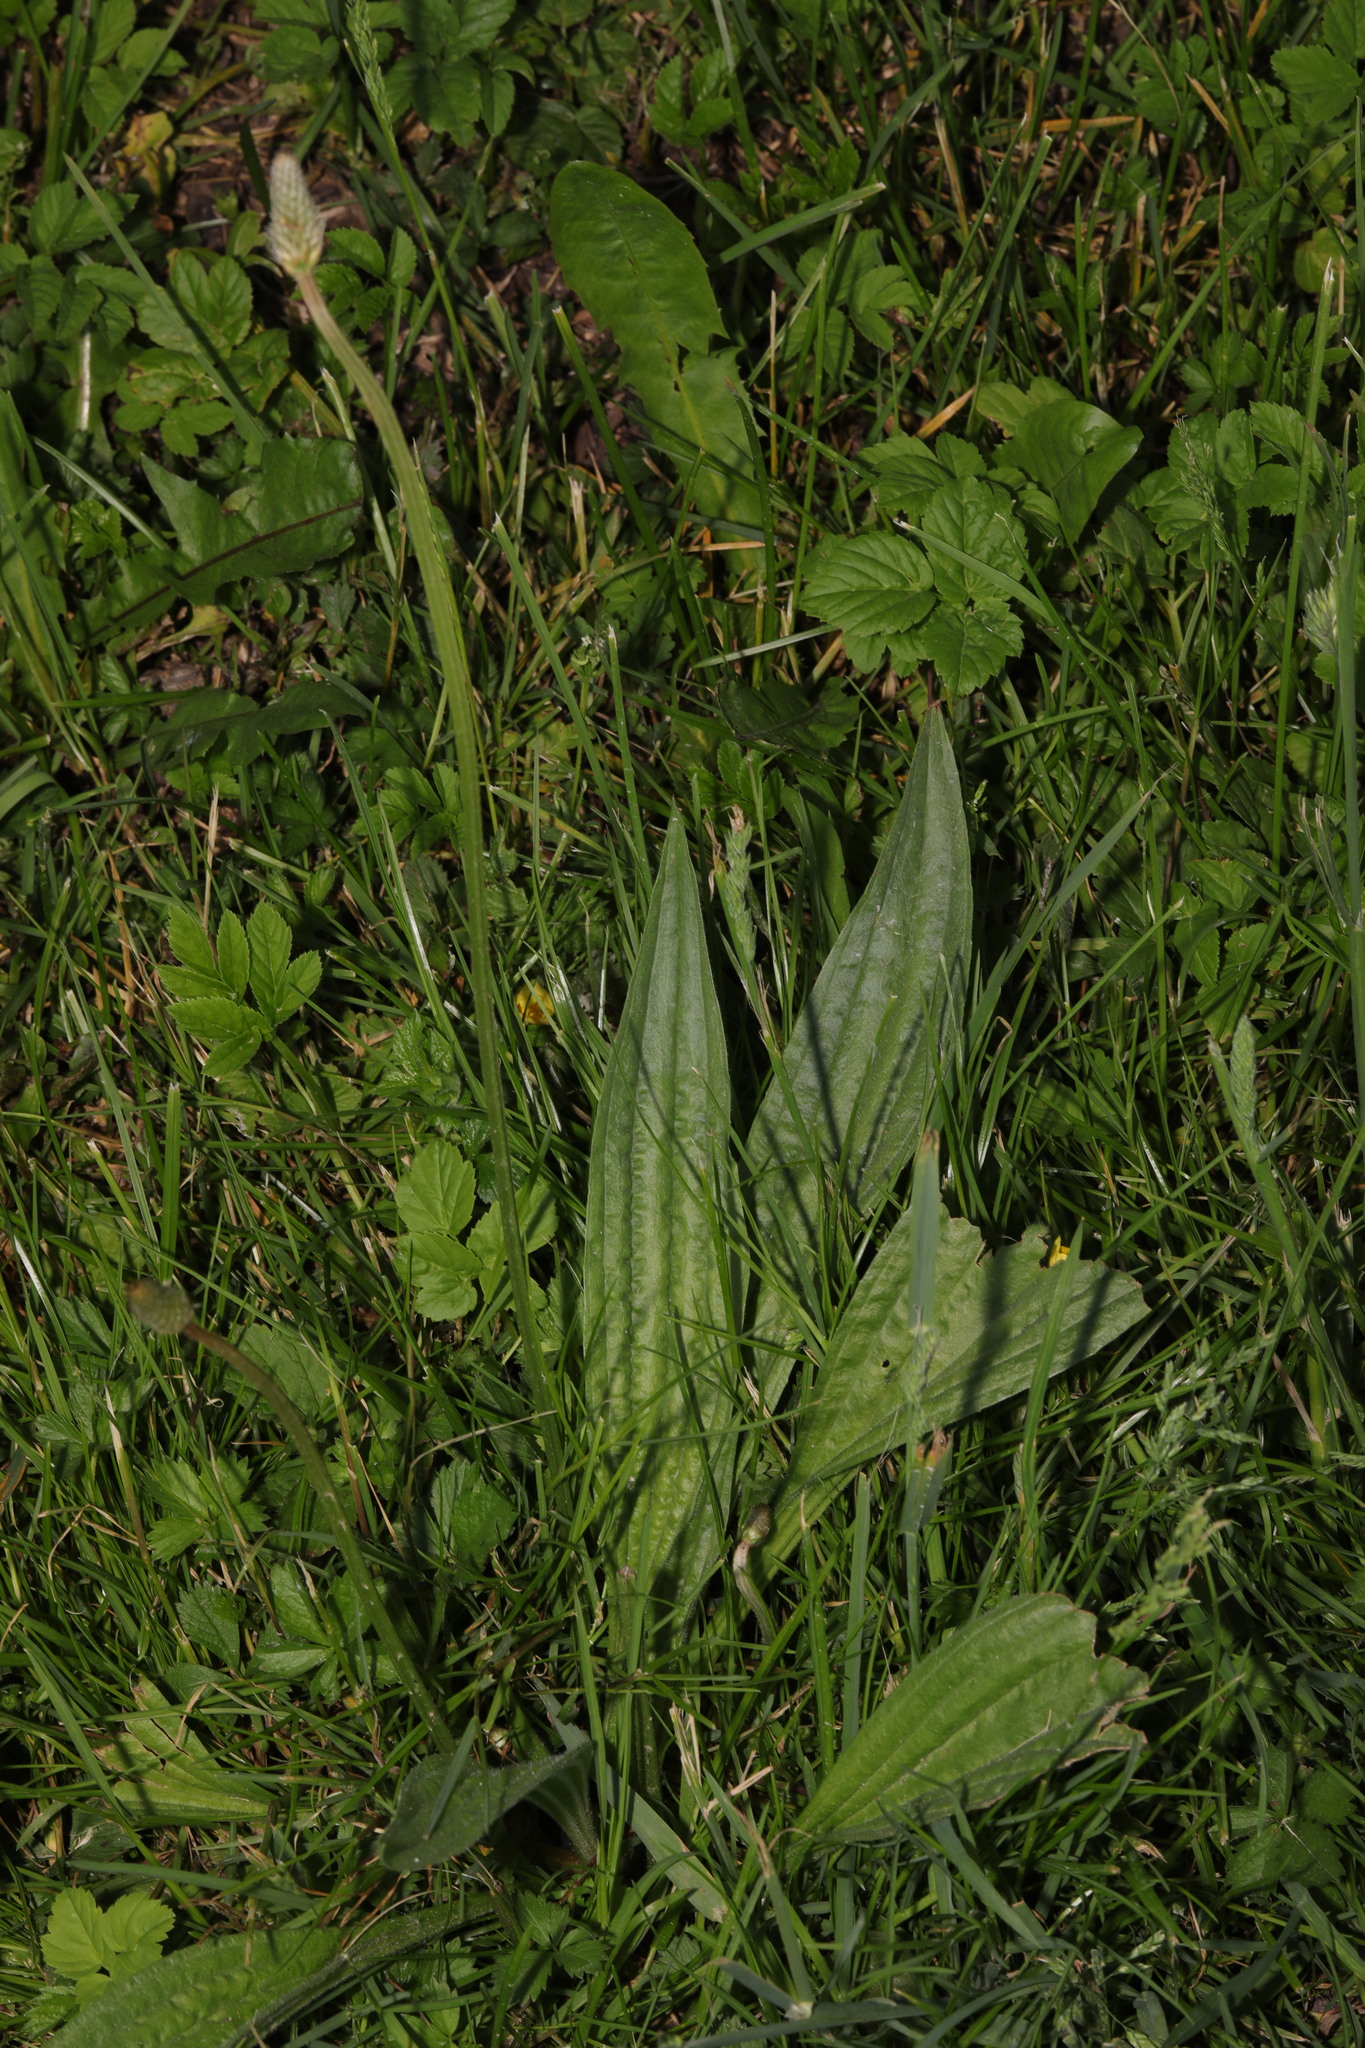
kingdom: Plantae
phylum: Tracheophyta
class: Magnoliopsida
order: Lamiales
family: Plantaginaceae
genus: Plantago
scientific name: Plantago lanceolata
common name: Ribwort plantain
